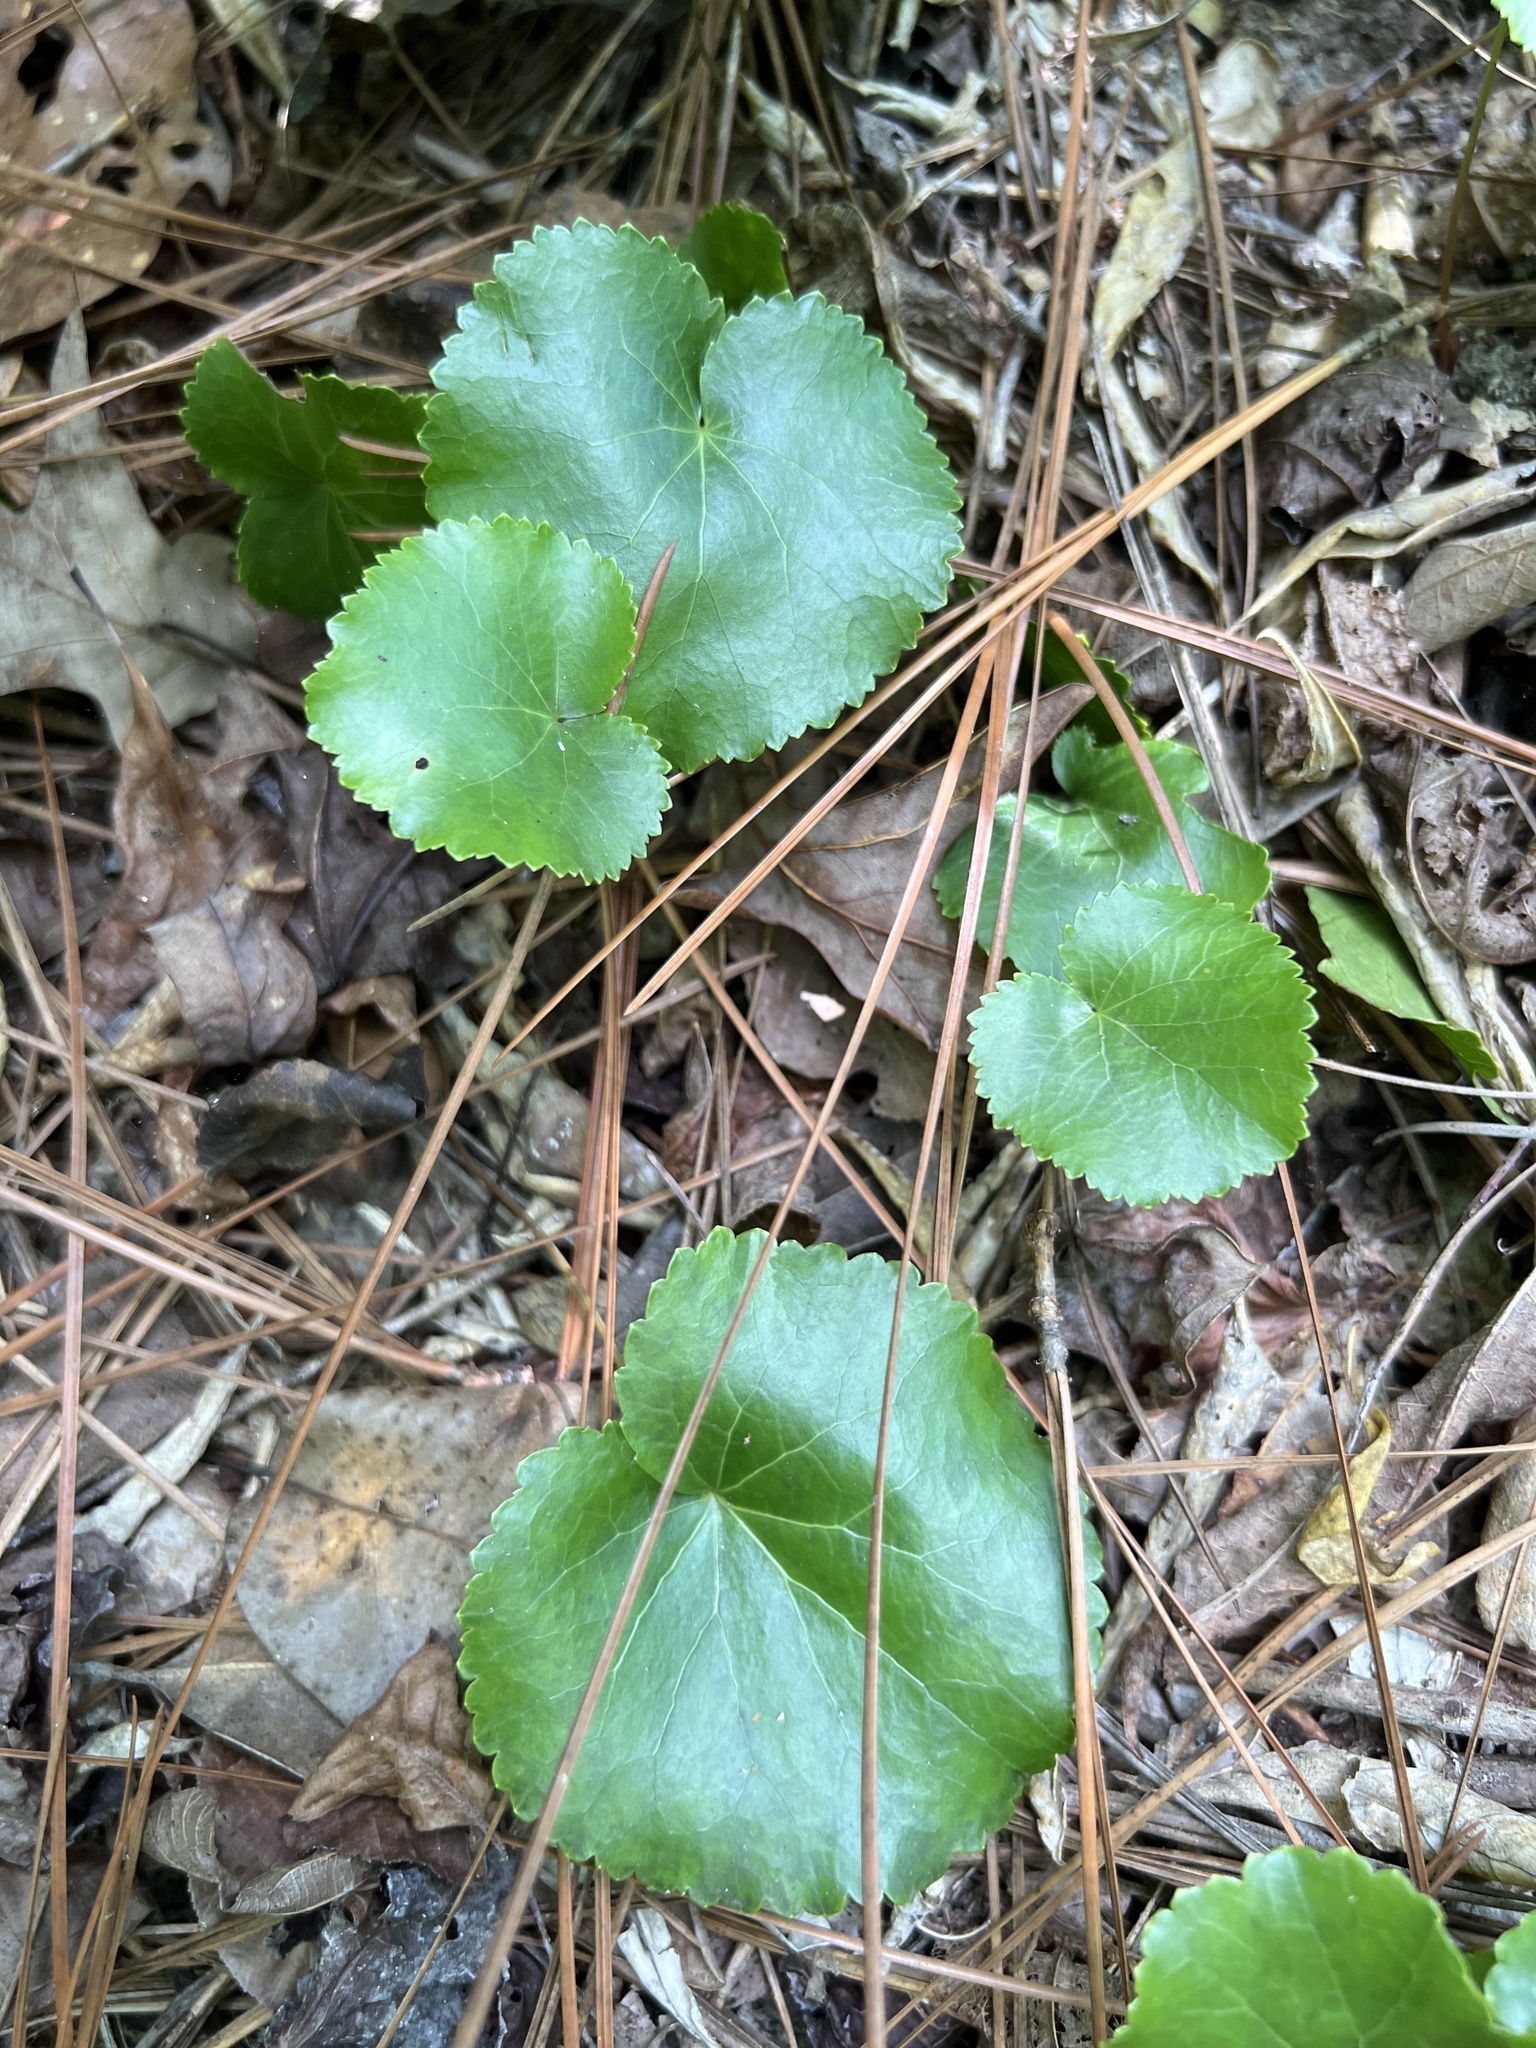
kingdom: Plantae
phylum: Tracheophyta
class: Magnoliopsida
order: Ericales
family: Diapensiaceae
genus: Galax
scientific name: Galax urceolata
